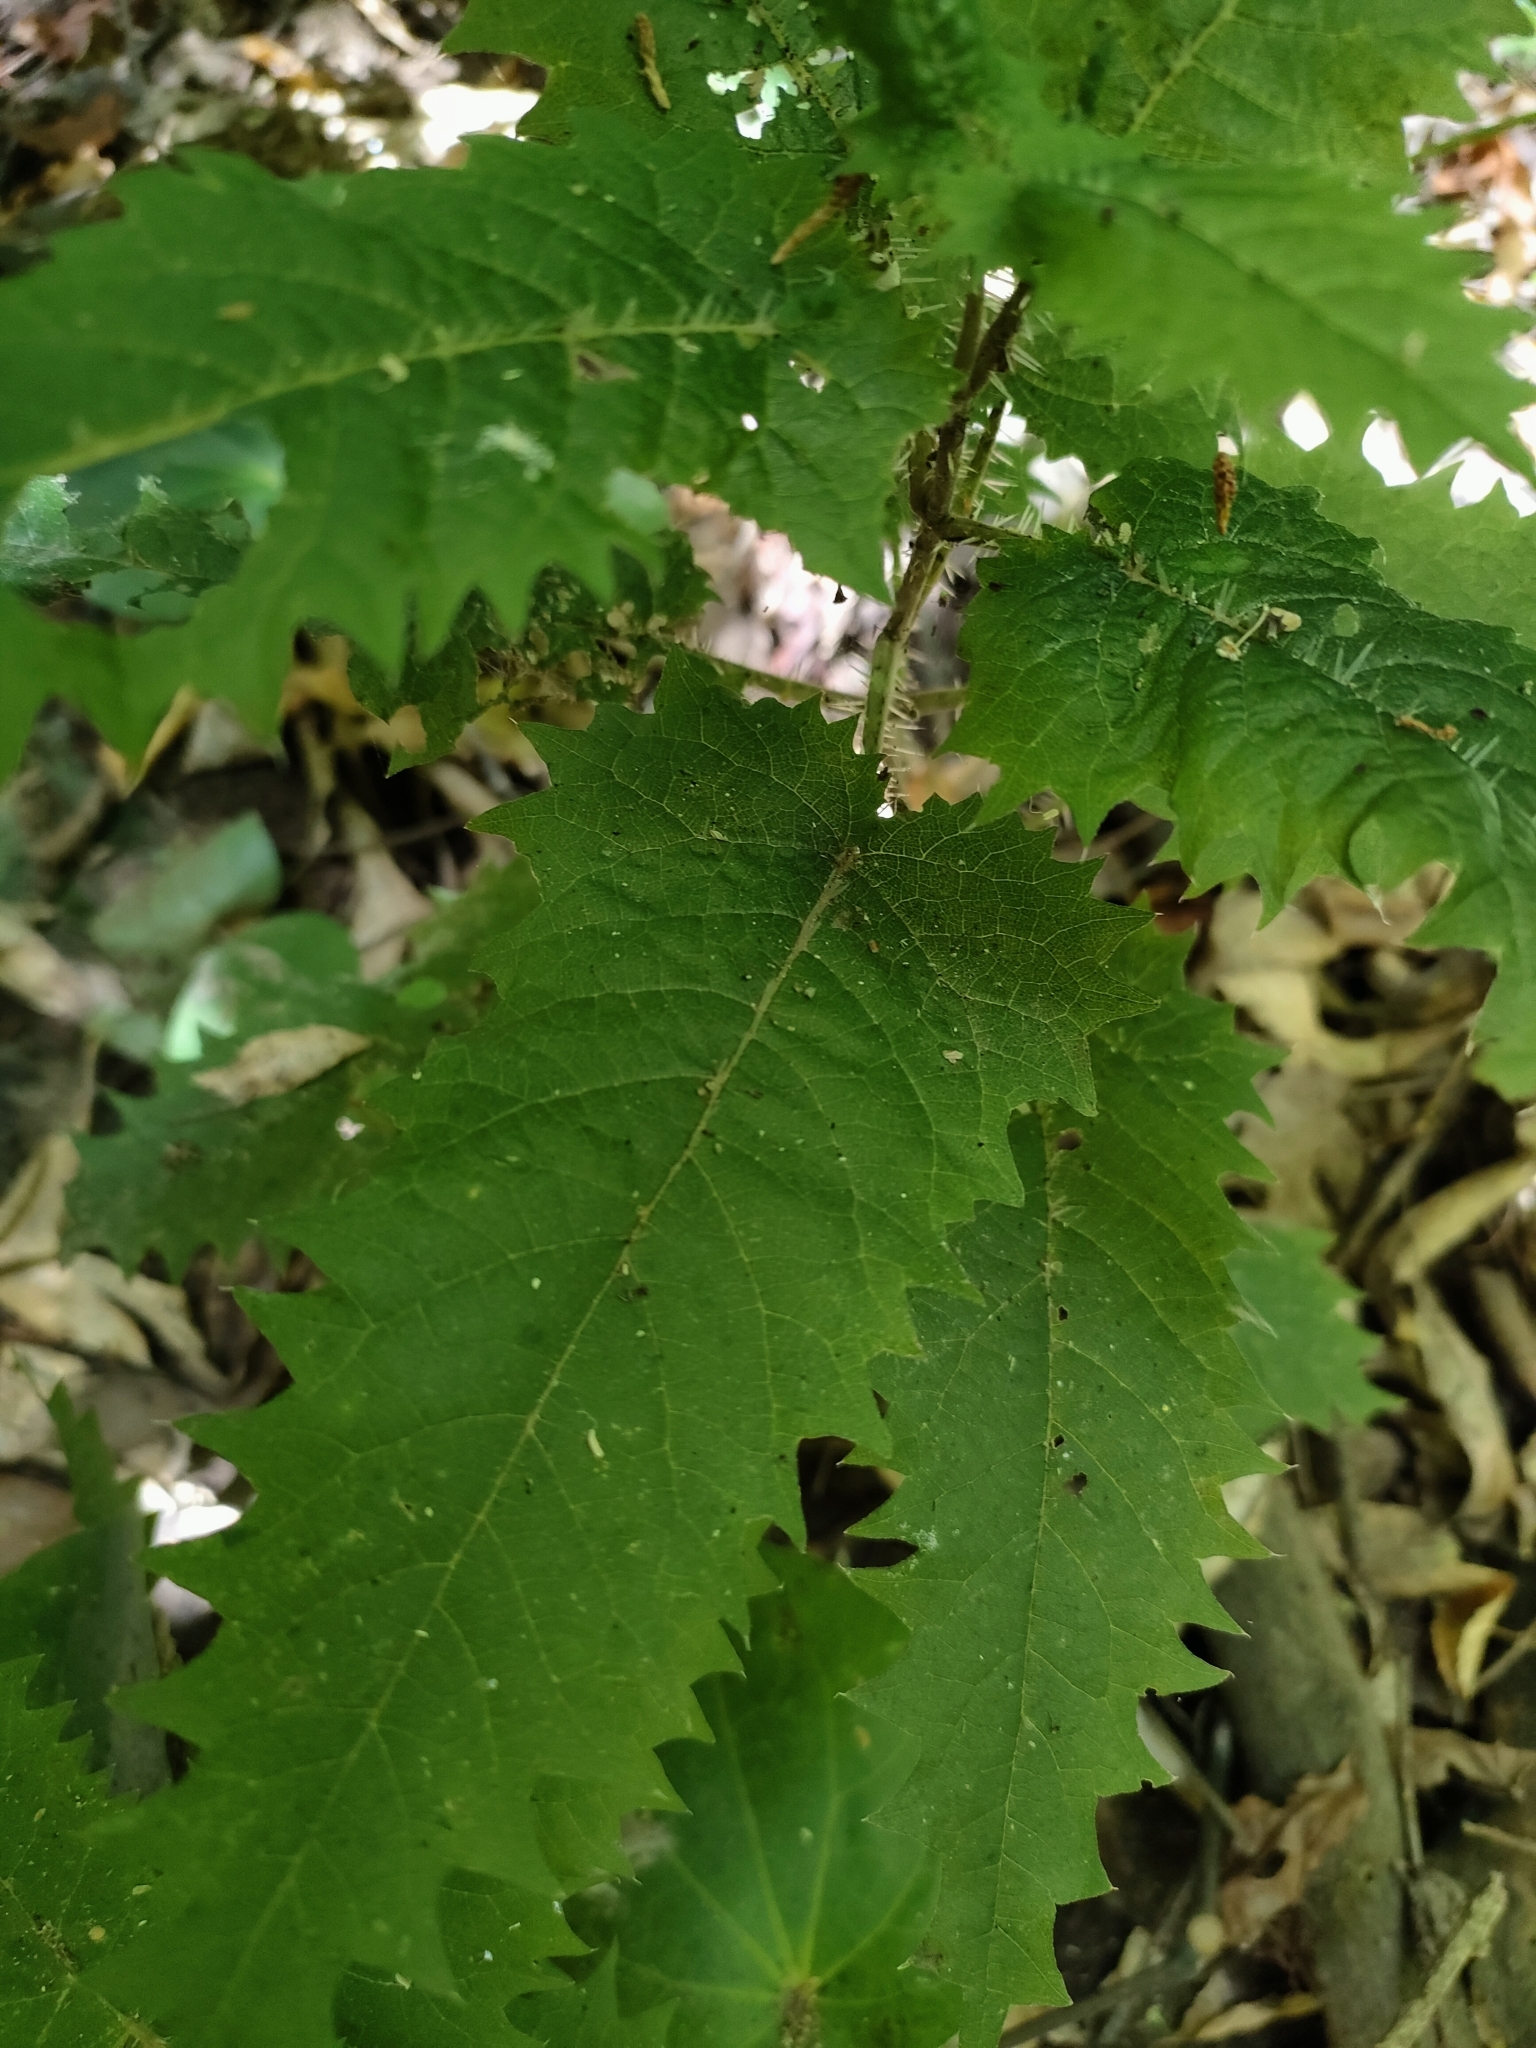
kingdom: Plantae
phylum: Tracheophyta
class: Magnoliopsida
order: Rosales
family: Urticaceae
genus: Urtica
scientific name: Urtica ferox
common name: Tree nettle
